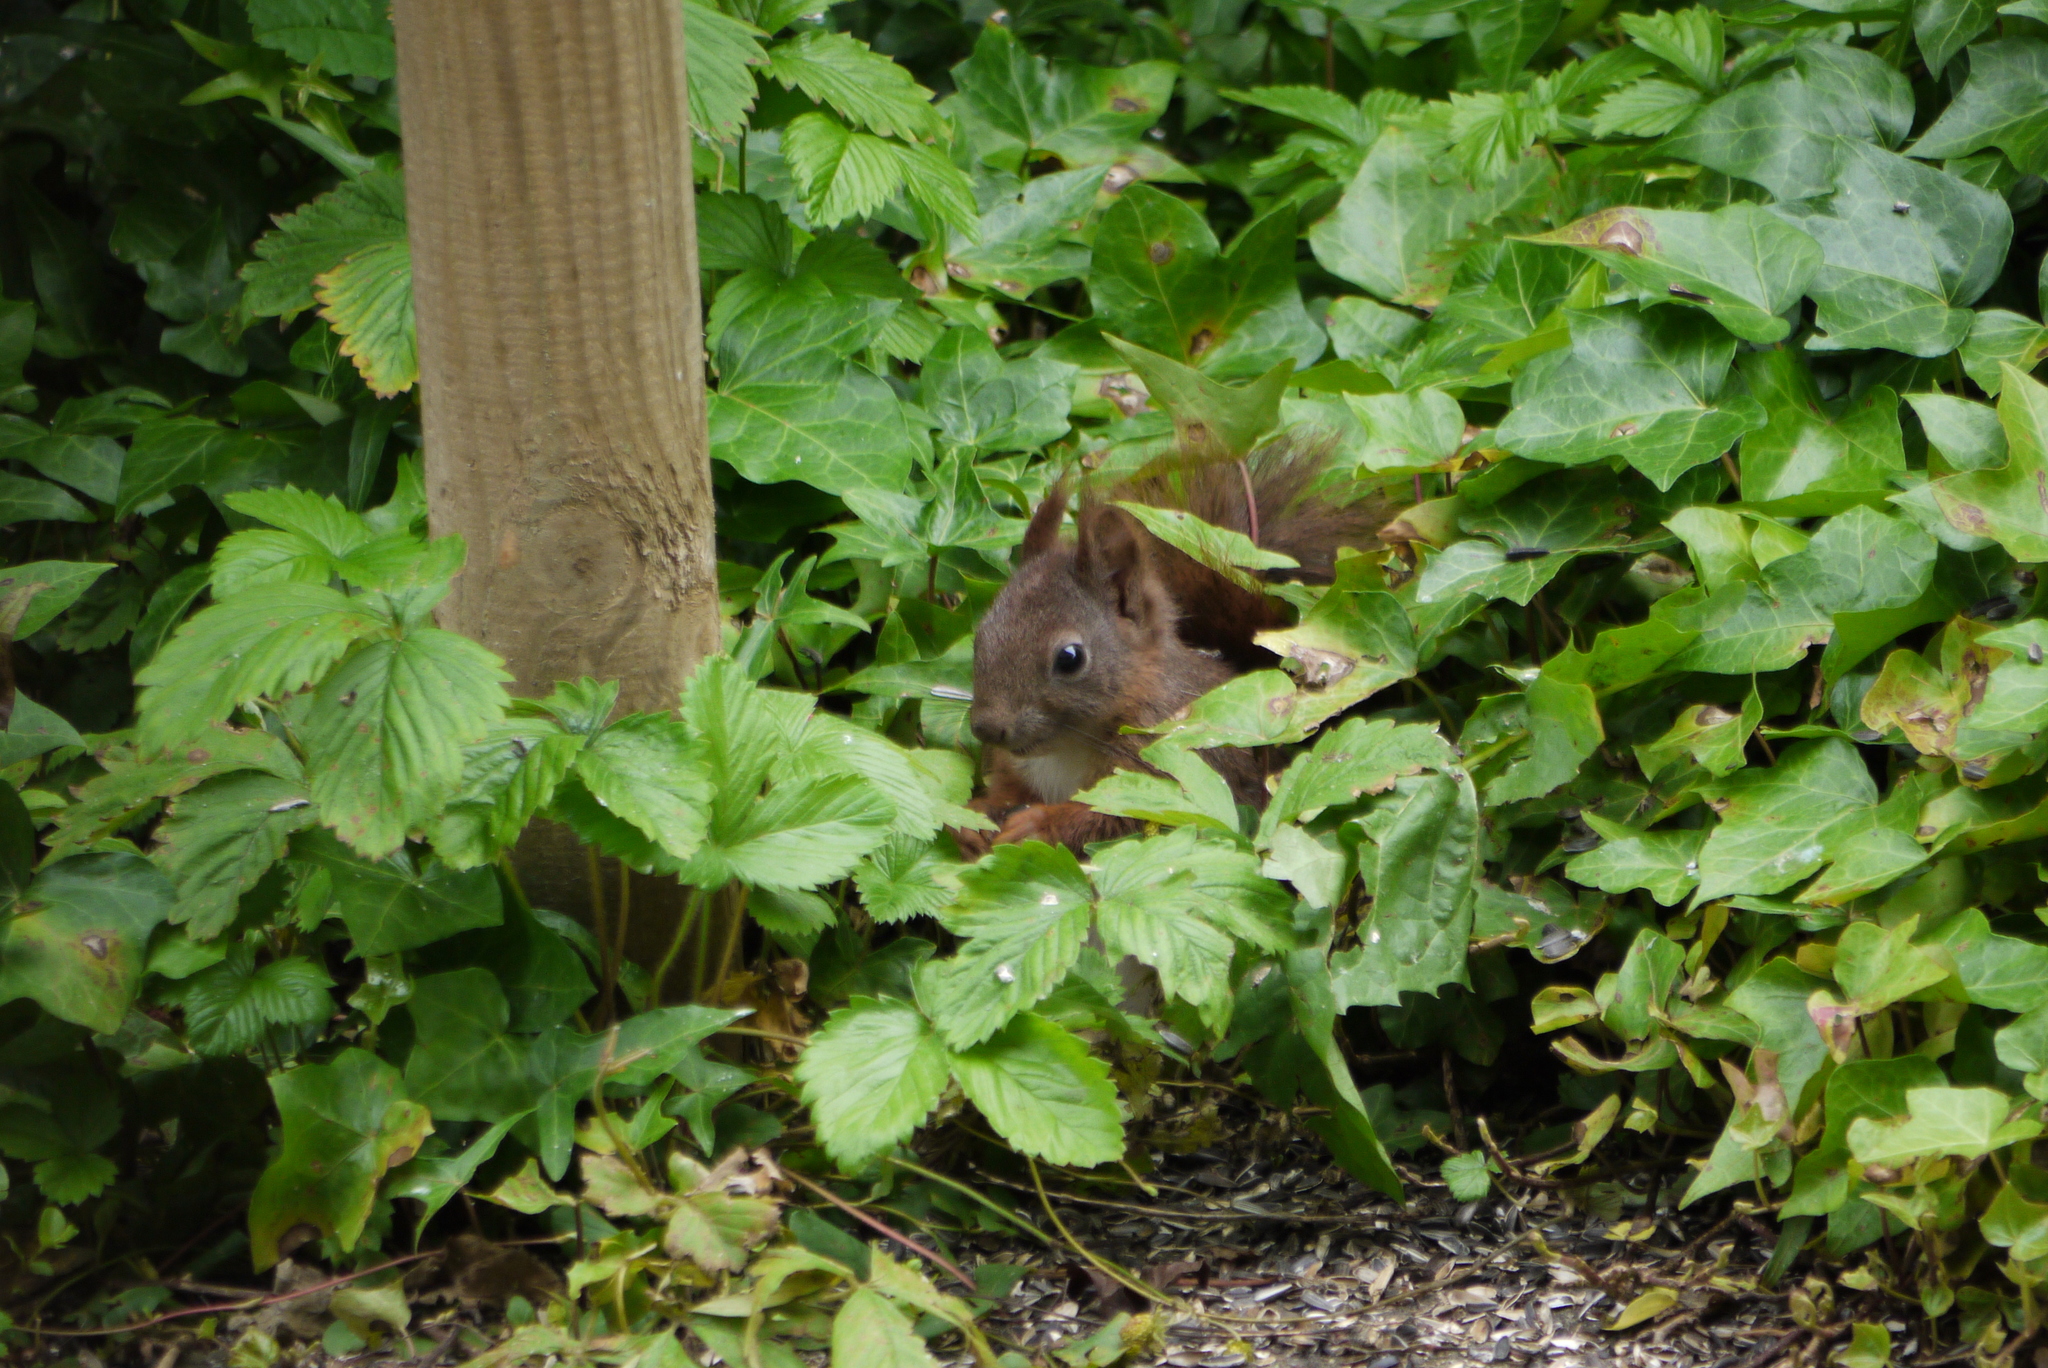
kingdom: Animalia
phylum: Chordata
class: Mammalia
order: Rodentia
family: Sciuridae
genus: Sciurus
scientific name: Sciurus vulgaris
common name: Eurasian red squirrel
